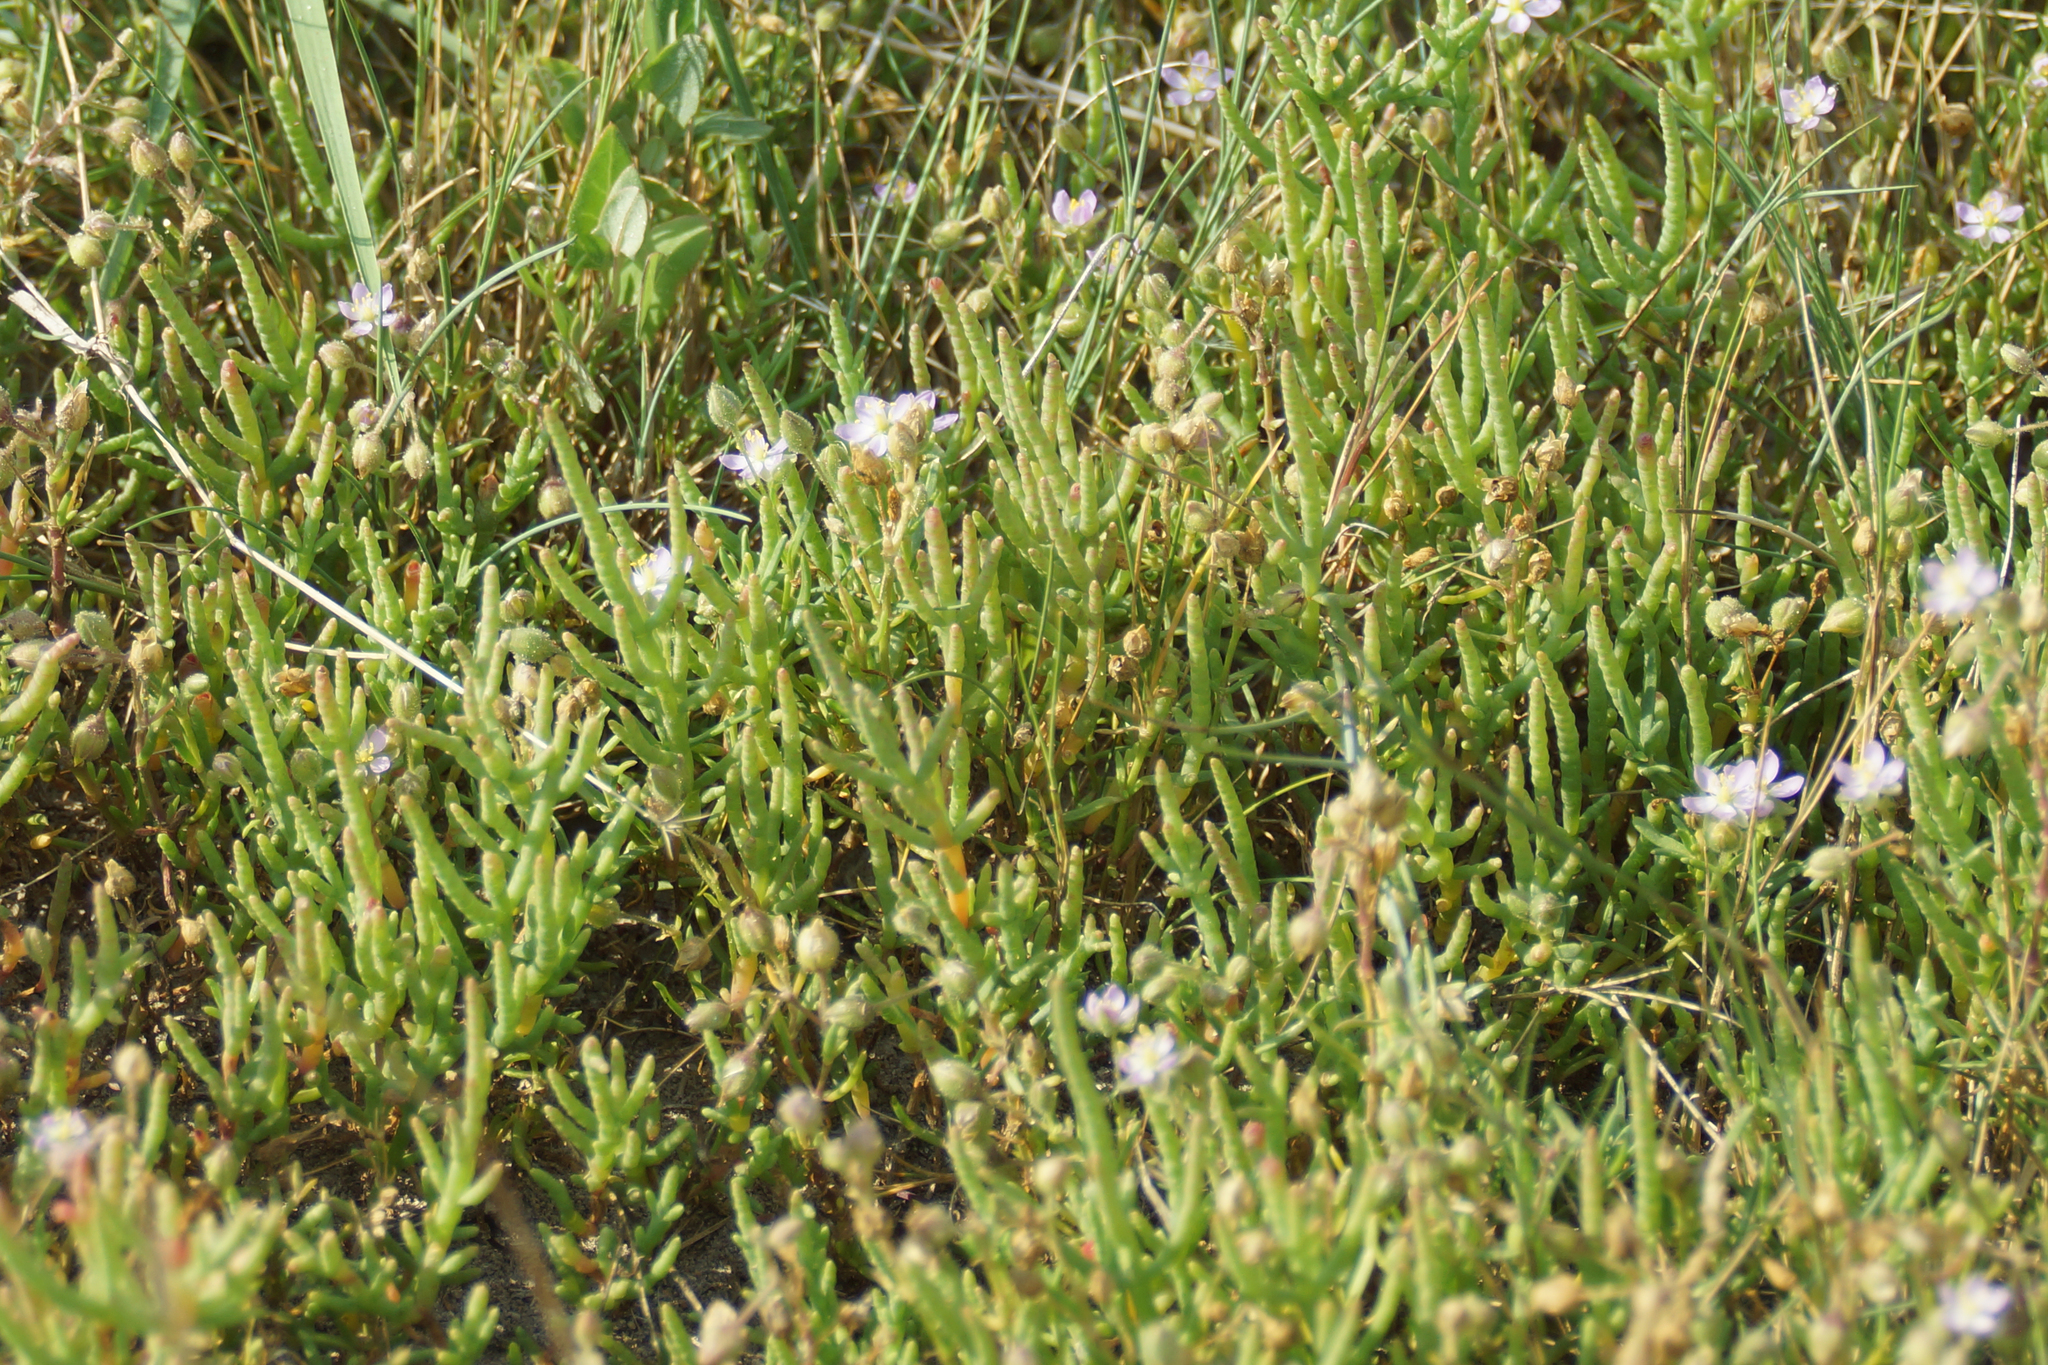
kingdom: Plantae
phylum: Tracheophyta
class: Magnoliopsida
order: Caryophyllales
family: Amaranthaceae
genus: Salicornia
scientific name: Salicornia perennans
